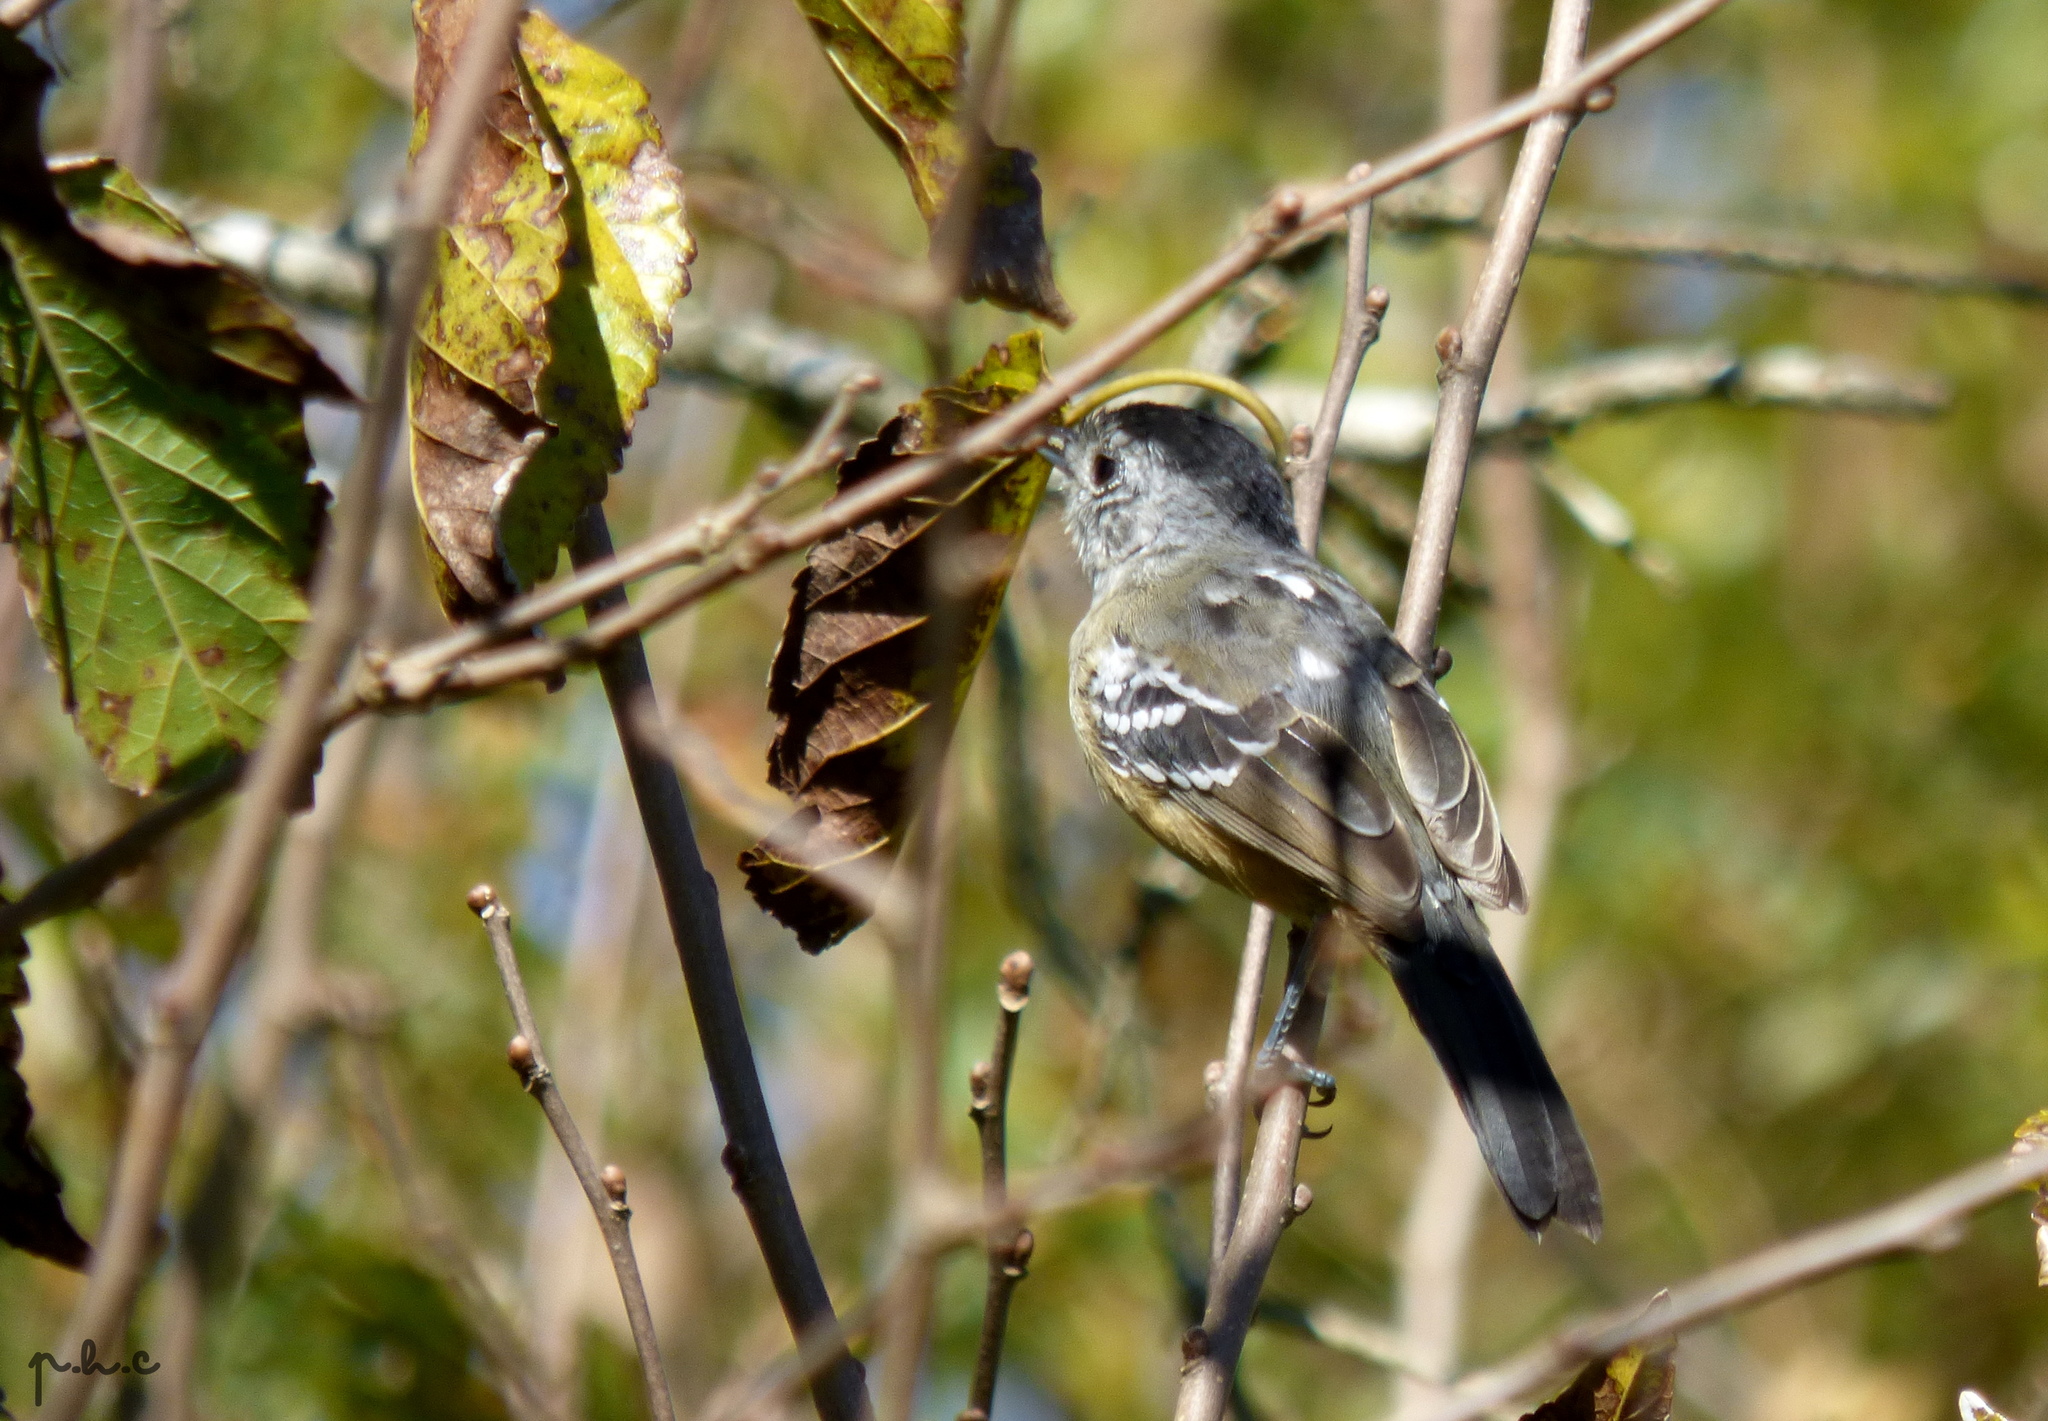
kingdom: Animalia
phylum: Chordata
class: Aves
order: Passeriformes
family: Thamnophilidae
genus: Thamnophilus
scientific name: Thamnophilus caerulescens
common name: Variable antshrike
